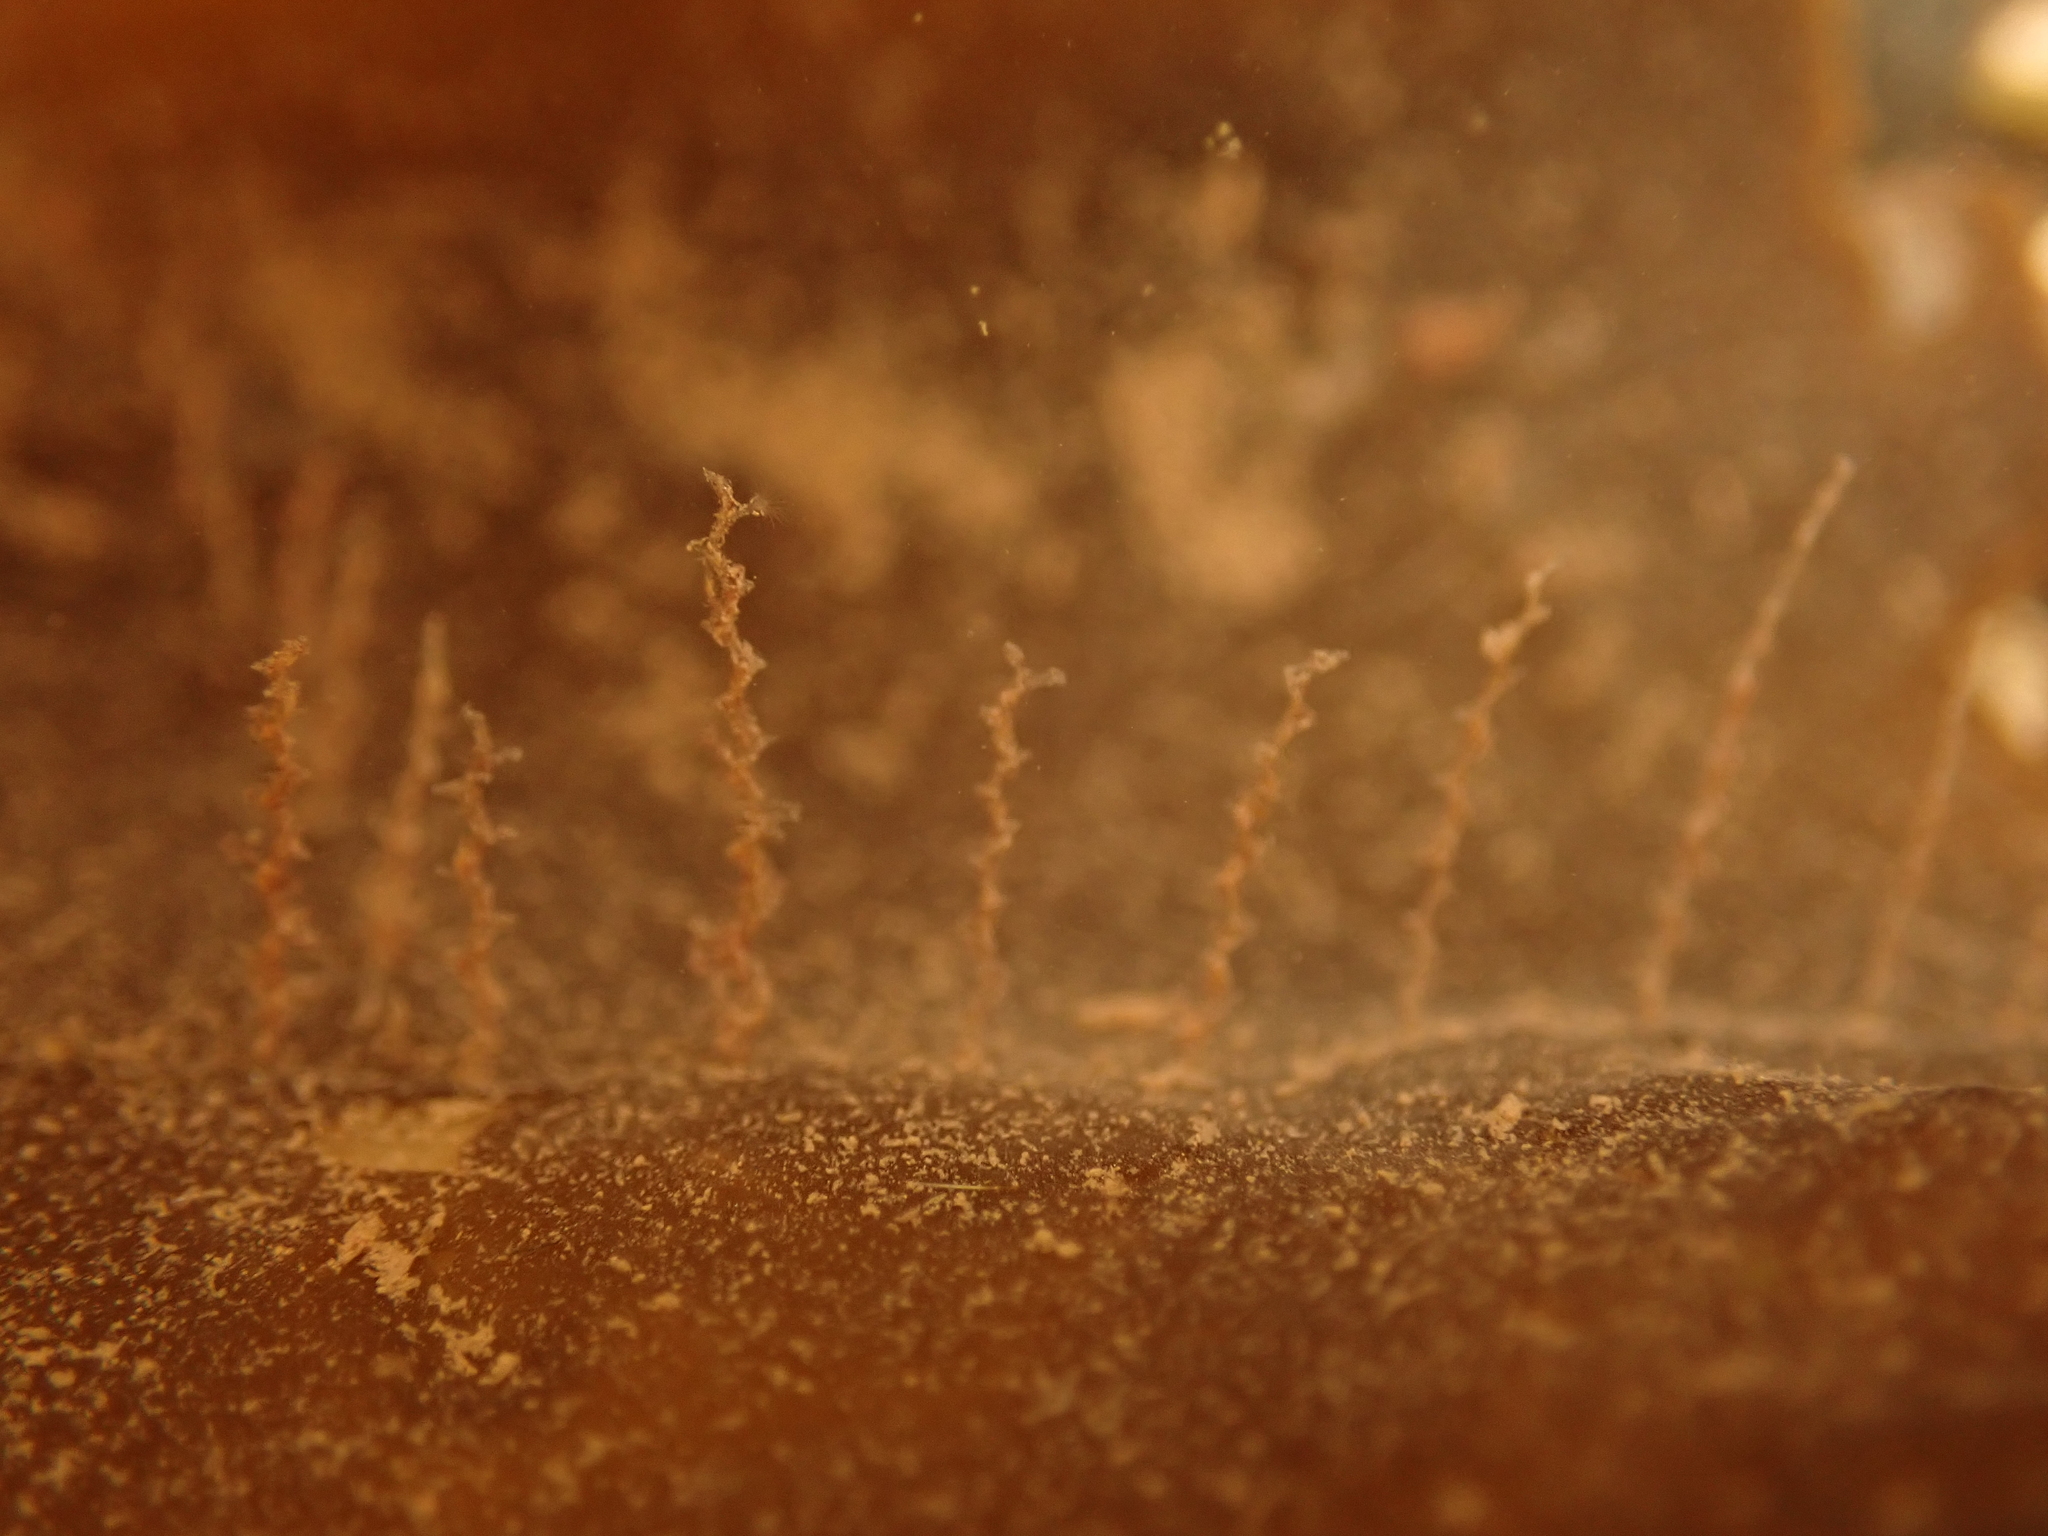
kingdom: Animalia
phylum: Cnidaria
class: Hydrozoa
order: Leptothecata
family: Campanulariidae
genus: Obelia
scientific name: Obelia geniculata
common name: Bell hydroid
